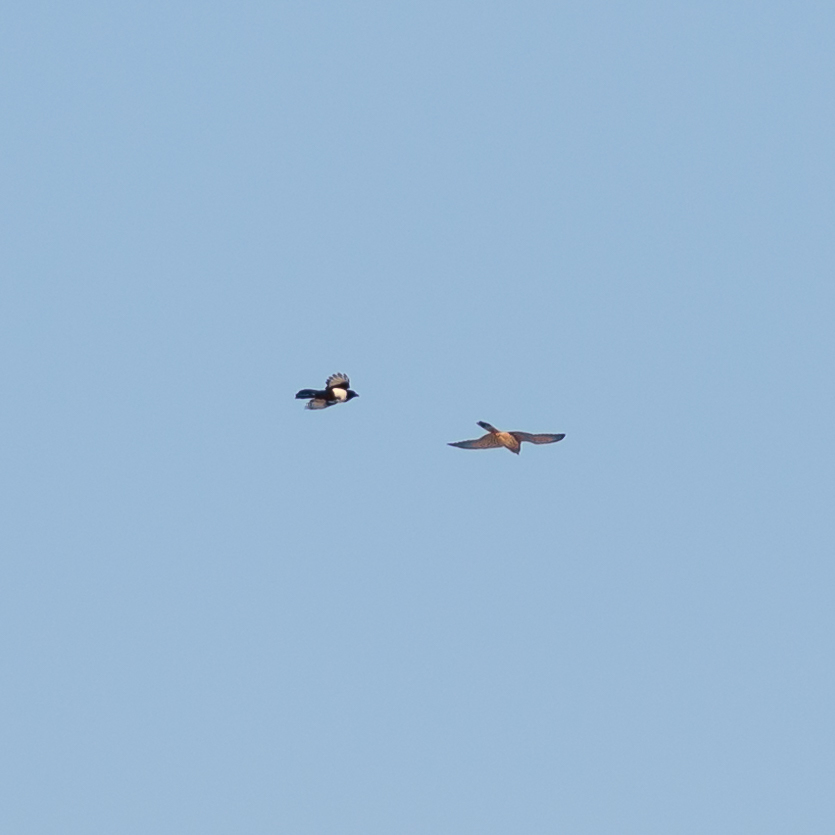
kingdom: Animalia
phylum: Chordata
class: Aves
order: Passeriformes
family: Corvidae
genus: Pica
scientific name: Pica pica
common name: Eurasian magpie
